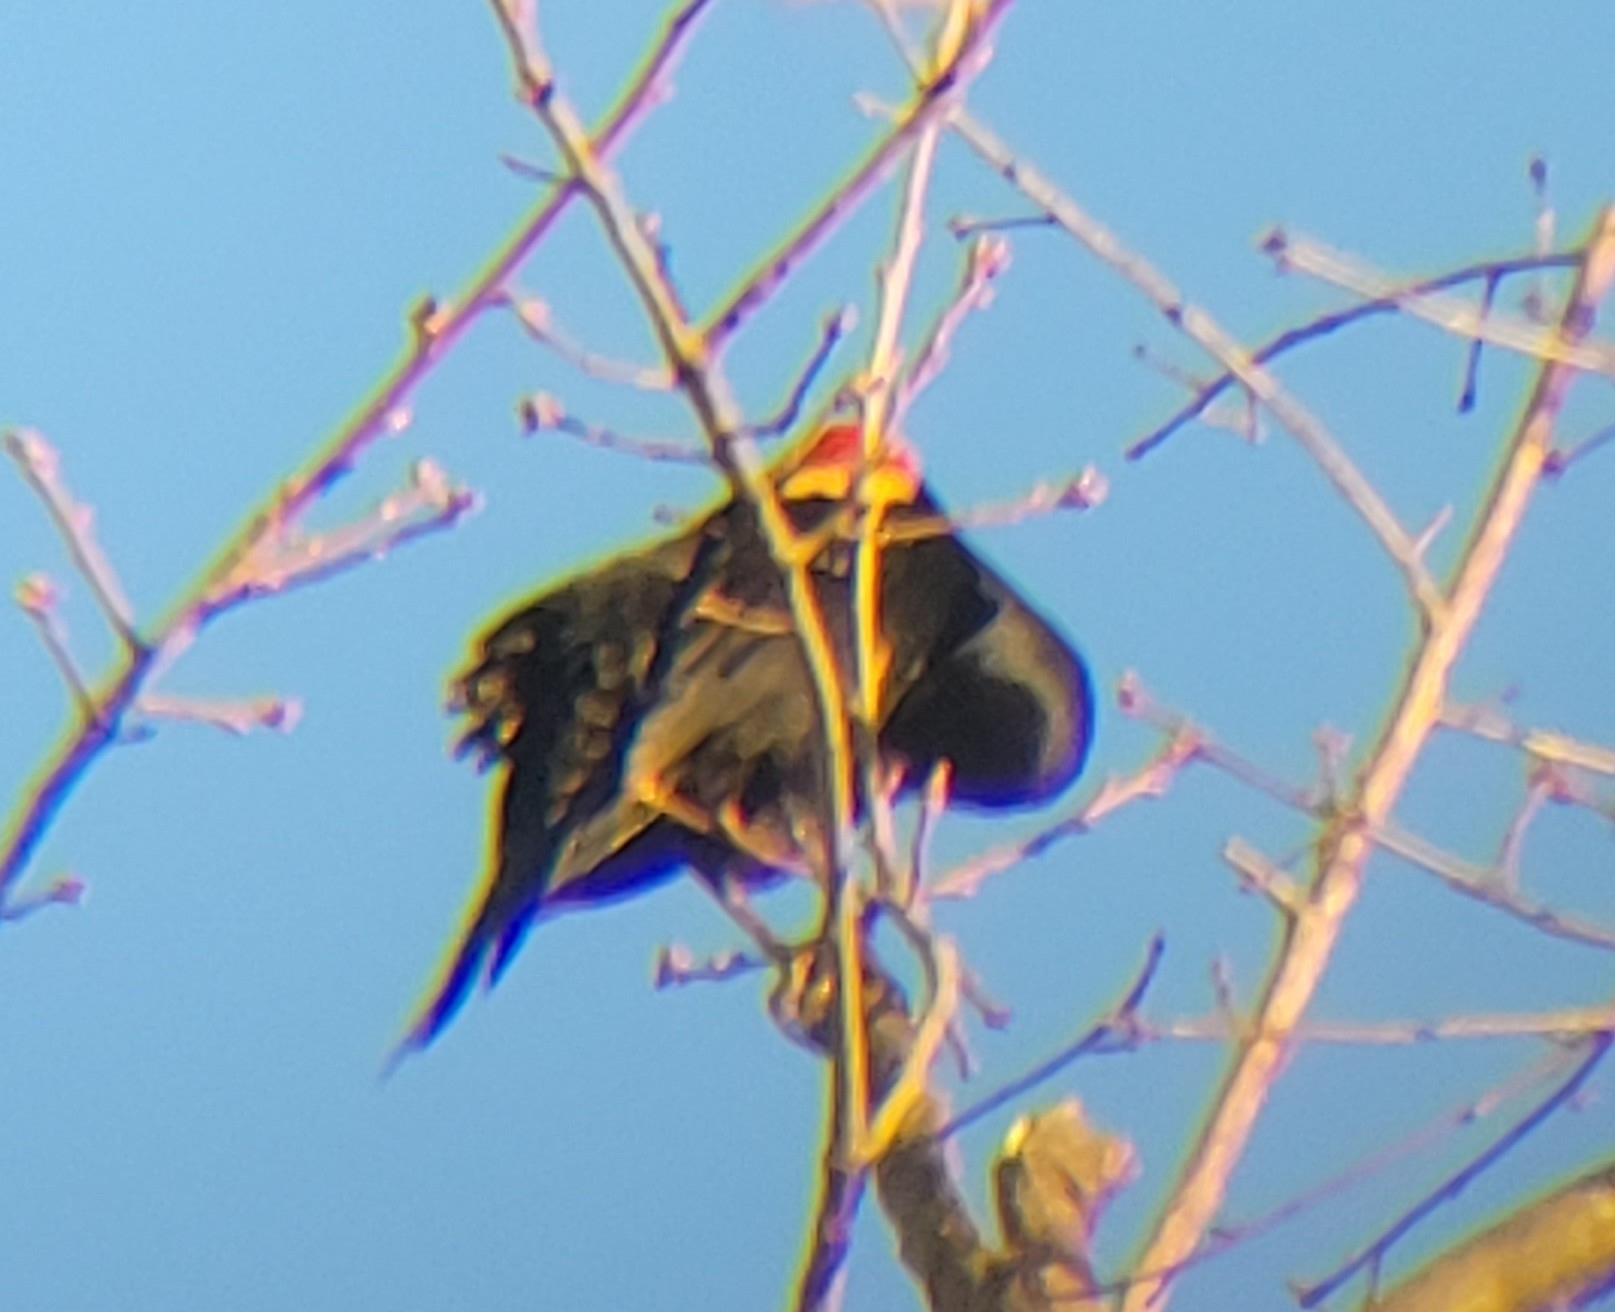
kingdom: Animalia
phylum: Chordata
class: Aves
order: Passeriformes
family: Icteridae
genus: Agelaius
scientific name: Agelaius phoeniceus
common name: Red-winged blackbird
